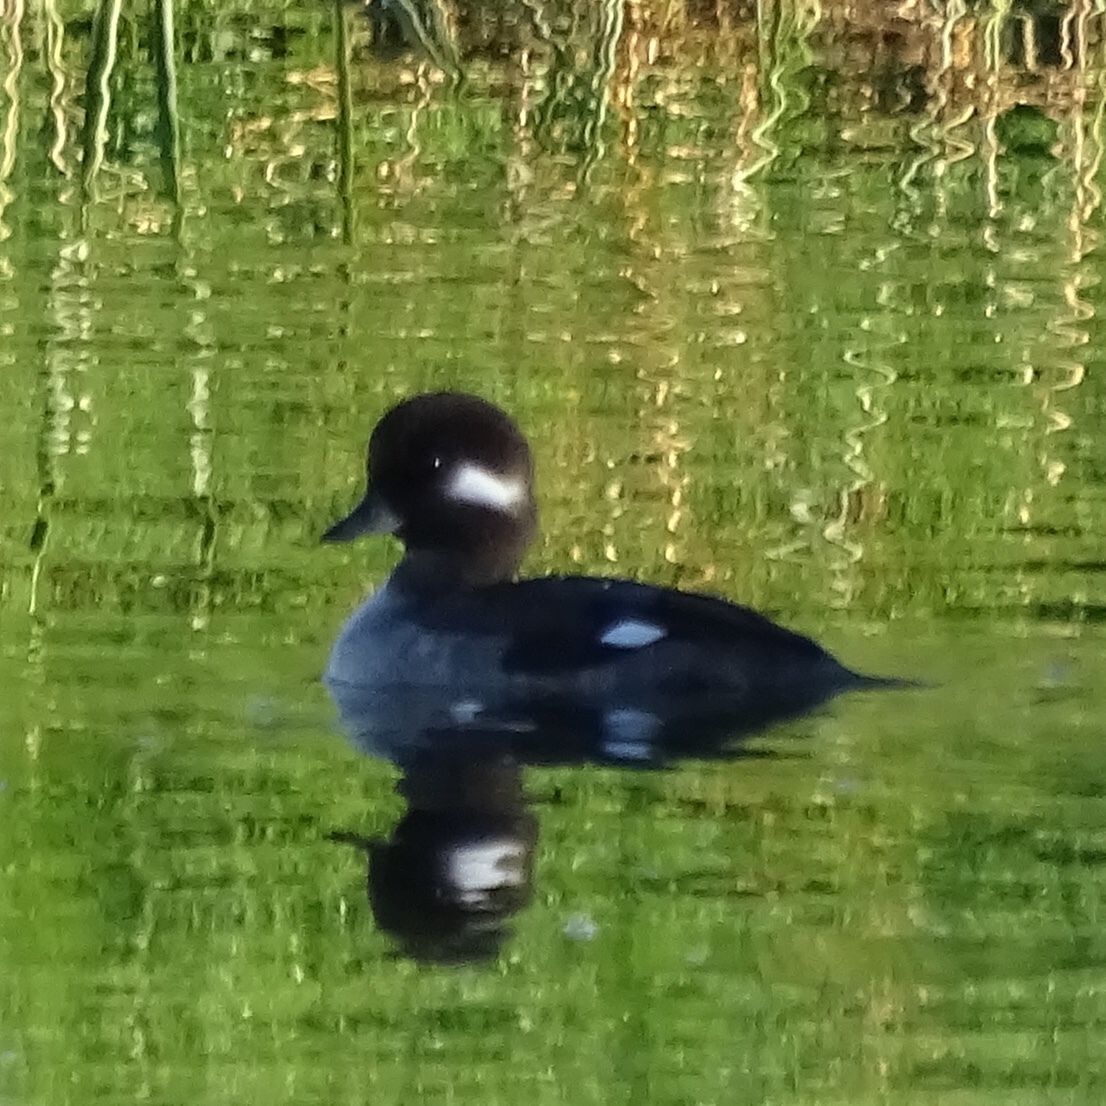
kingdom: Animalia
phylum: Chordata
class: Aves
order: Anseriformes
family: Anatidae
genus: Bucephala
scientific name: Bucephala albeola
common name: Bufflehead
